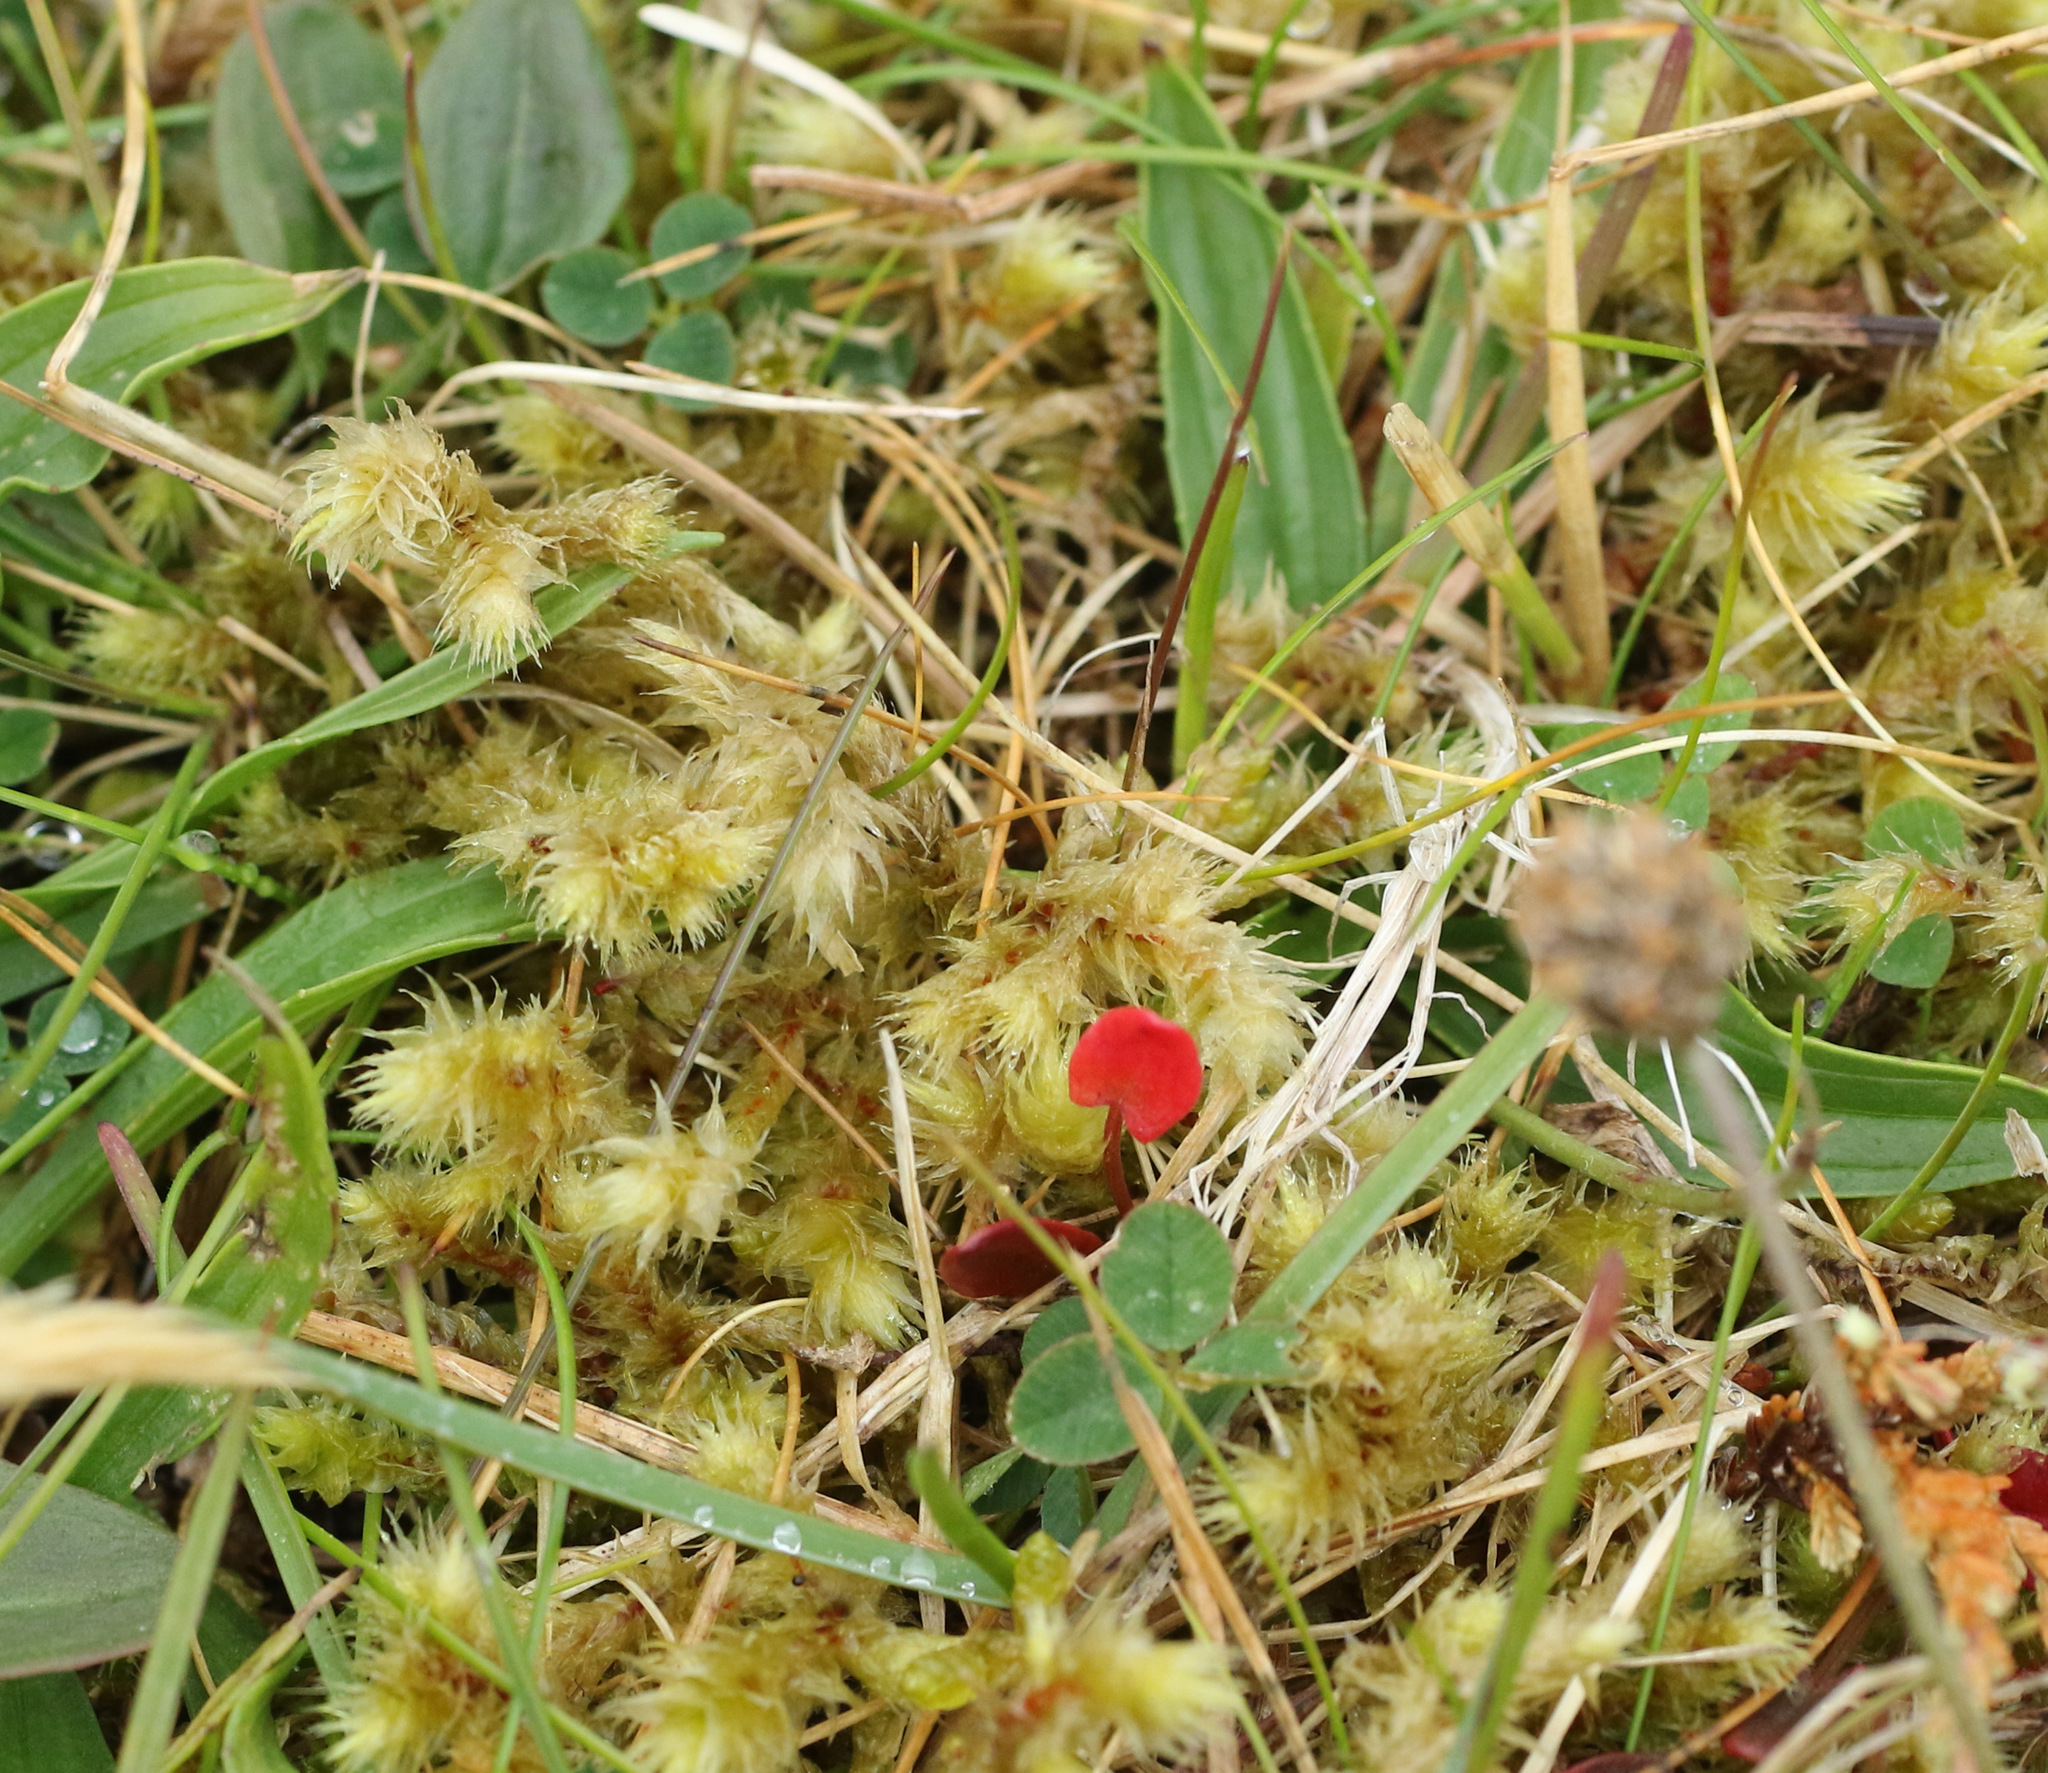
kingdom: Plantae
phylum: Bryophyta
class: Bryopsida
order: Hypnales
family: Hylocomiaceae
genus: Hylocomiadelphus
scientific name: Hylocomiadelphus triquetrus
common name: Rough goose neck moss
